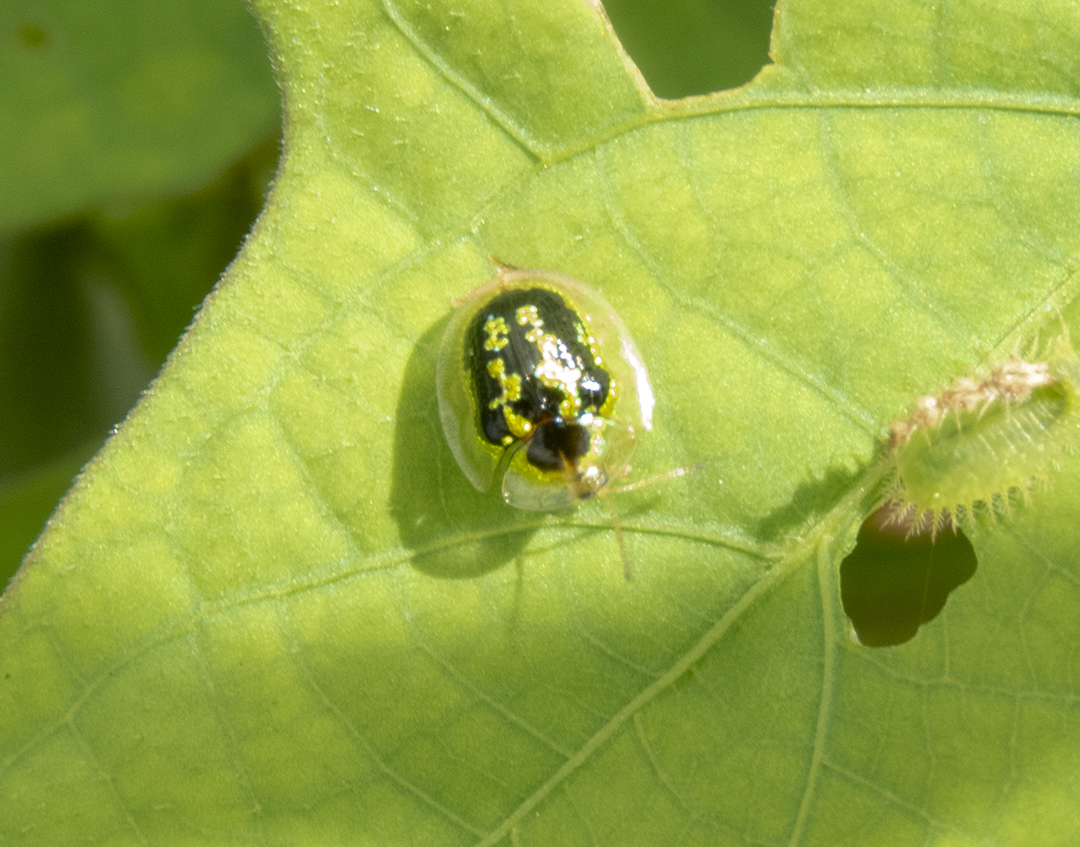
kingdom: Animalia
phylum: Arthropoda
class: Insecta
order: Coleoptera
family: Chrysomelidae
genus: Cassida
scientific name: Cassida circumdata
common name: Tortoise beetle
